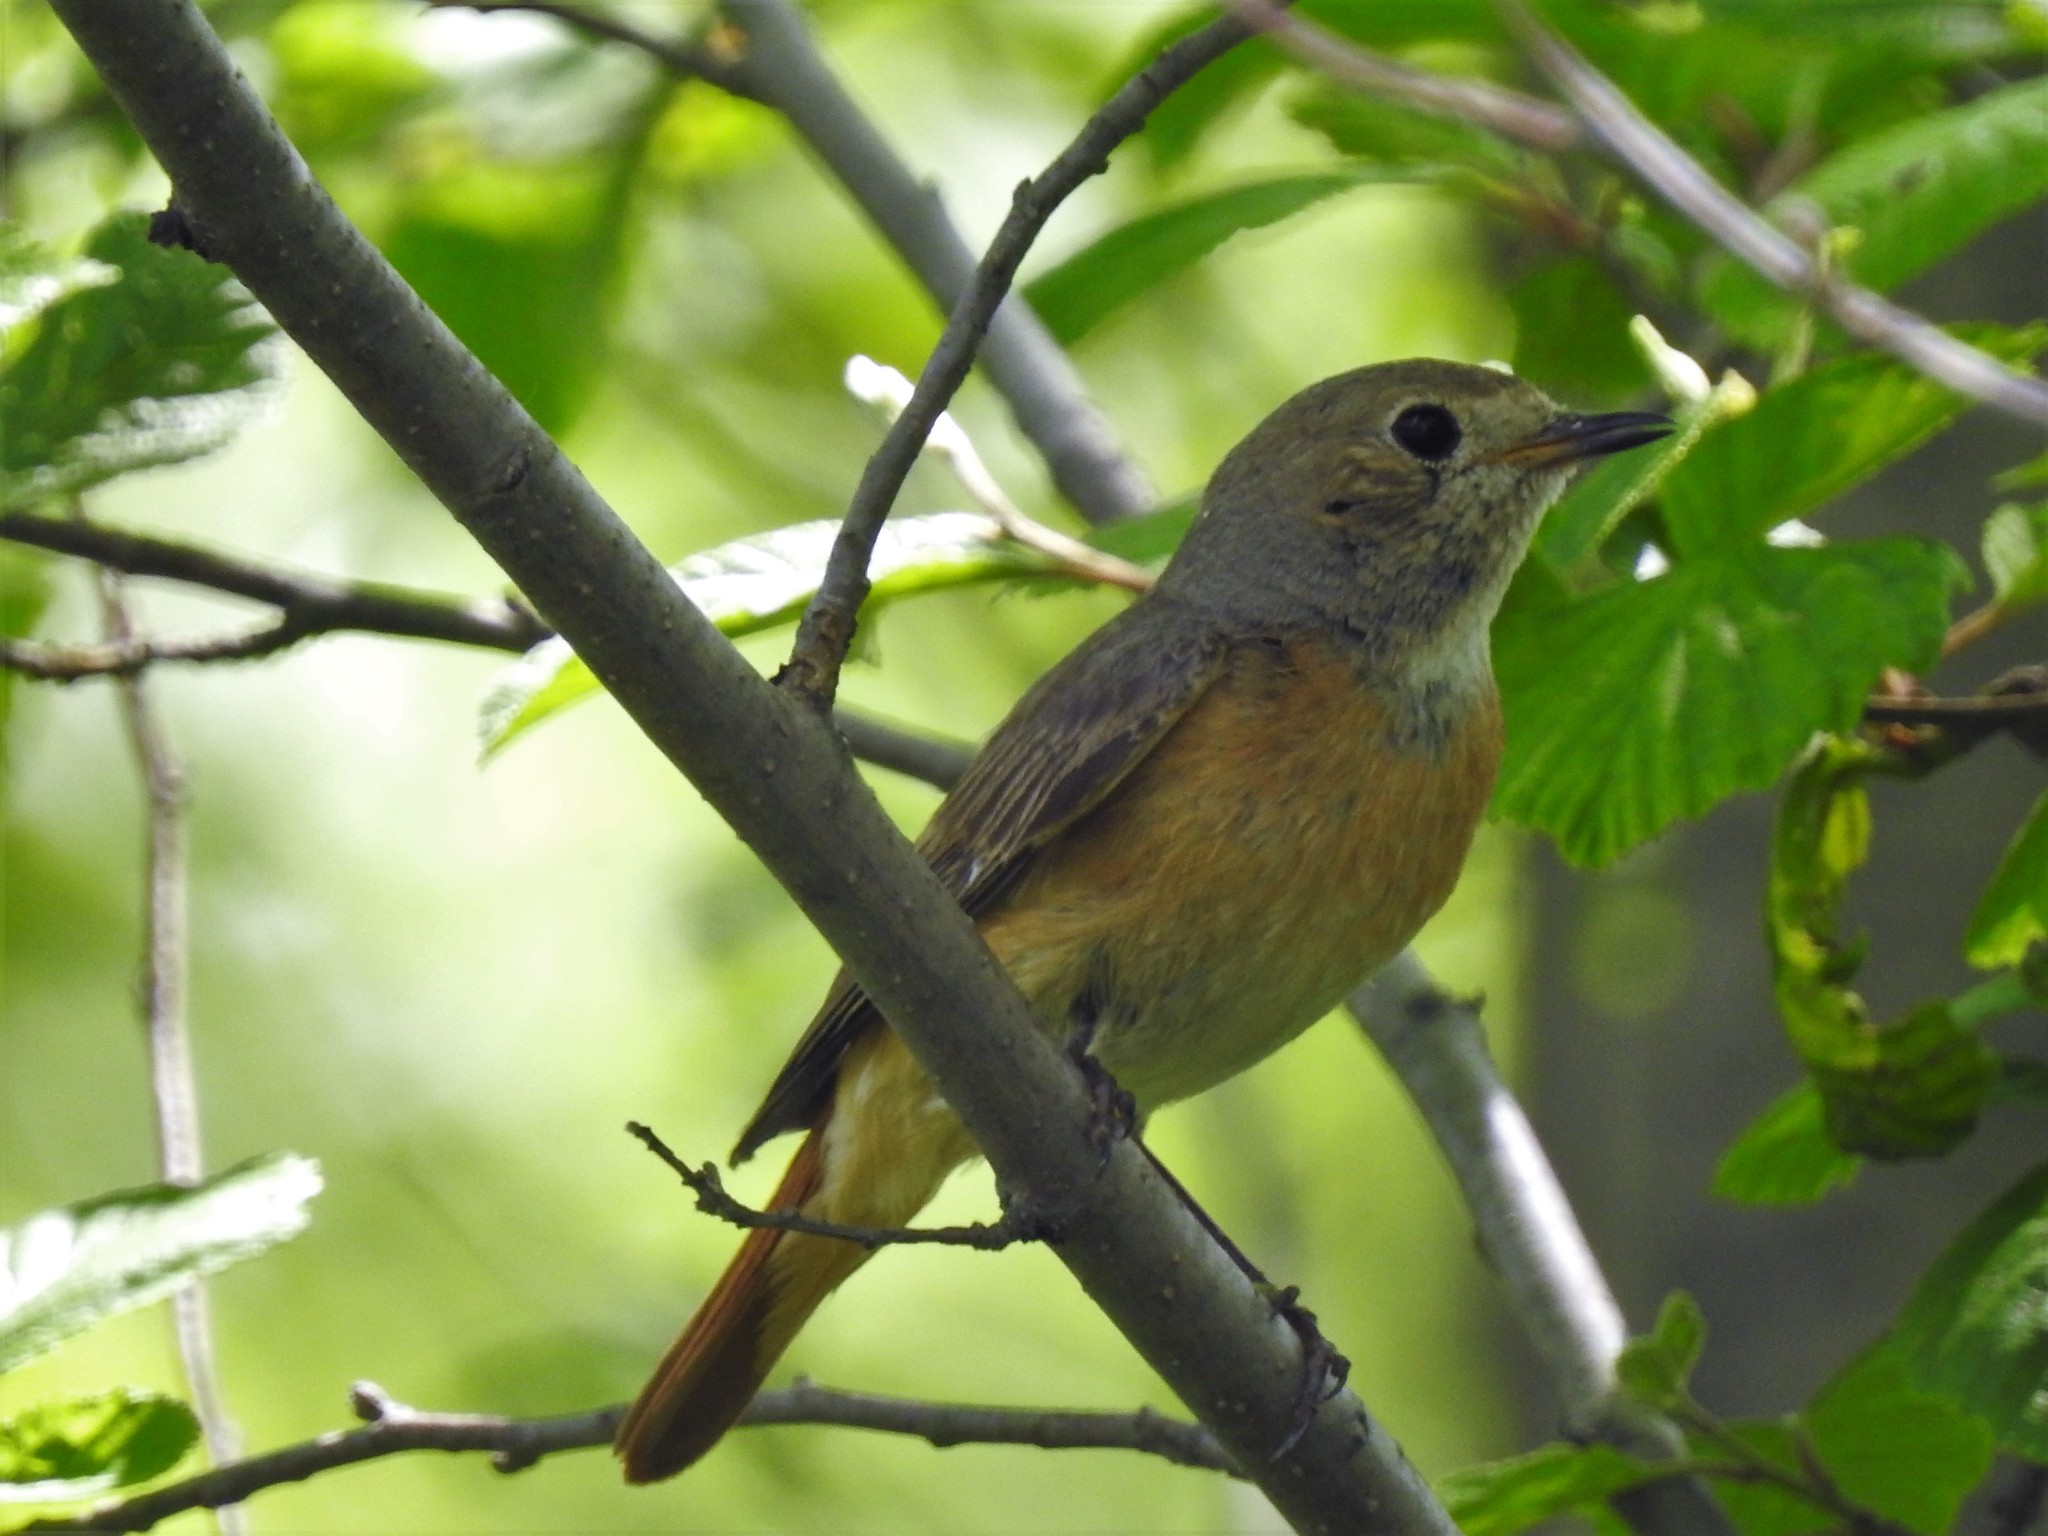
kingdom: Animalia
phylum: Chordata
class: Aves
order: Passeriformes
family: Muscicapidae
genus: Phoenicurus
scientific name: Phoenicurus phoenicurus
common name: Common redstart
